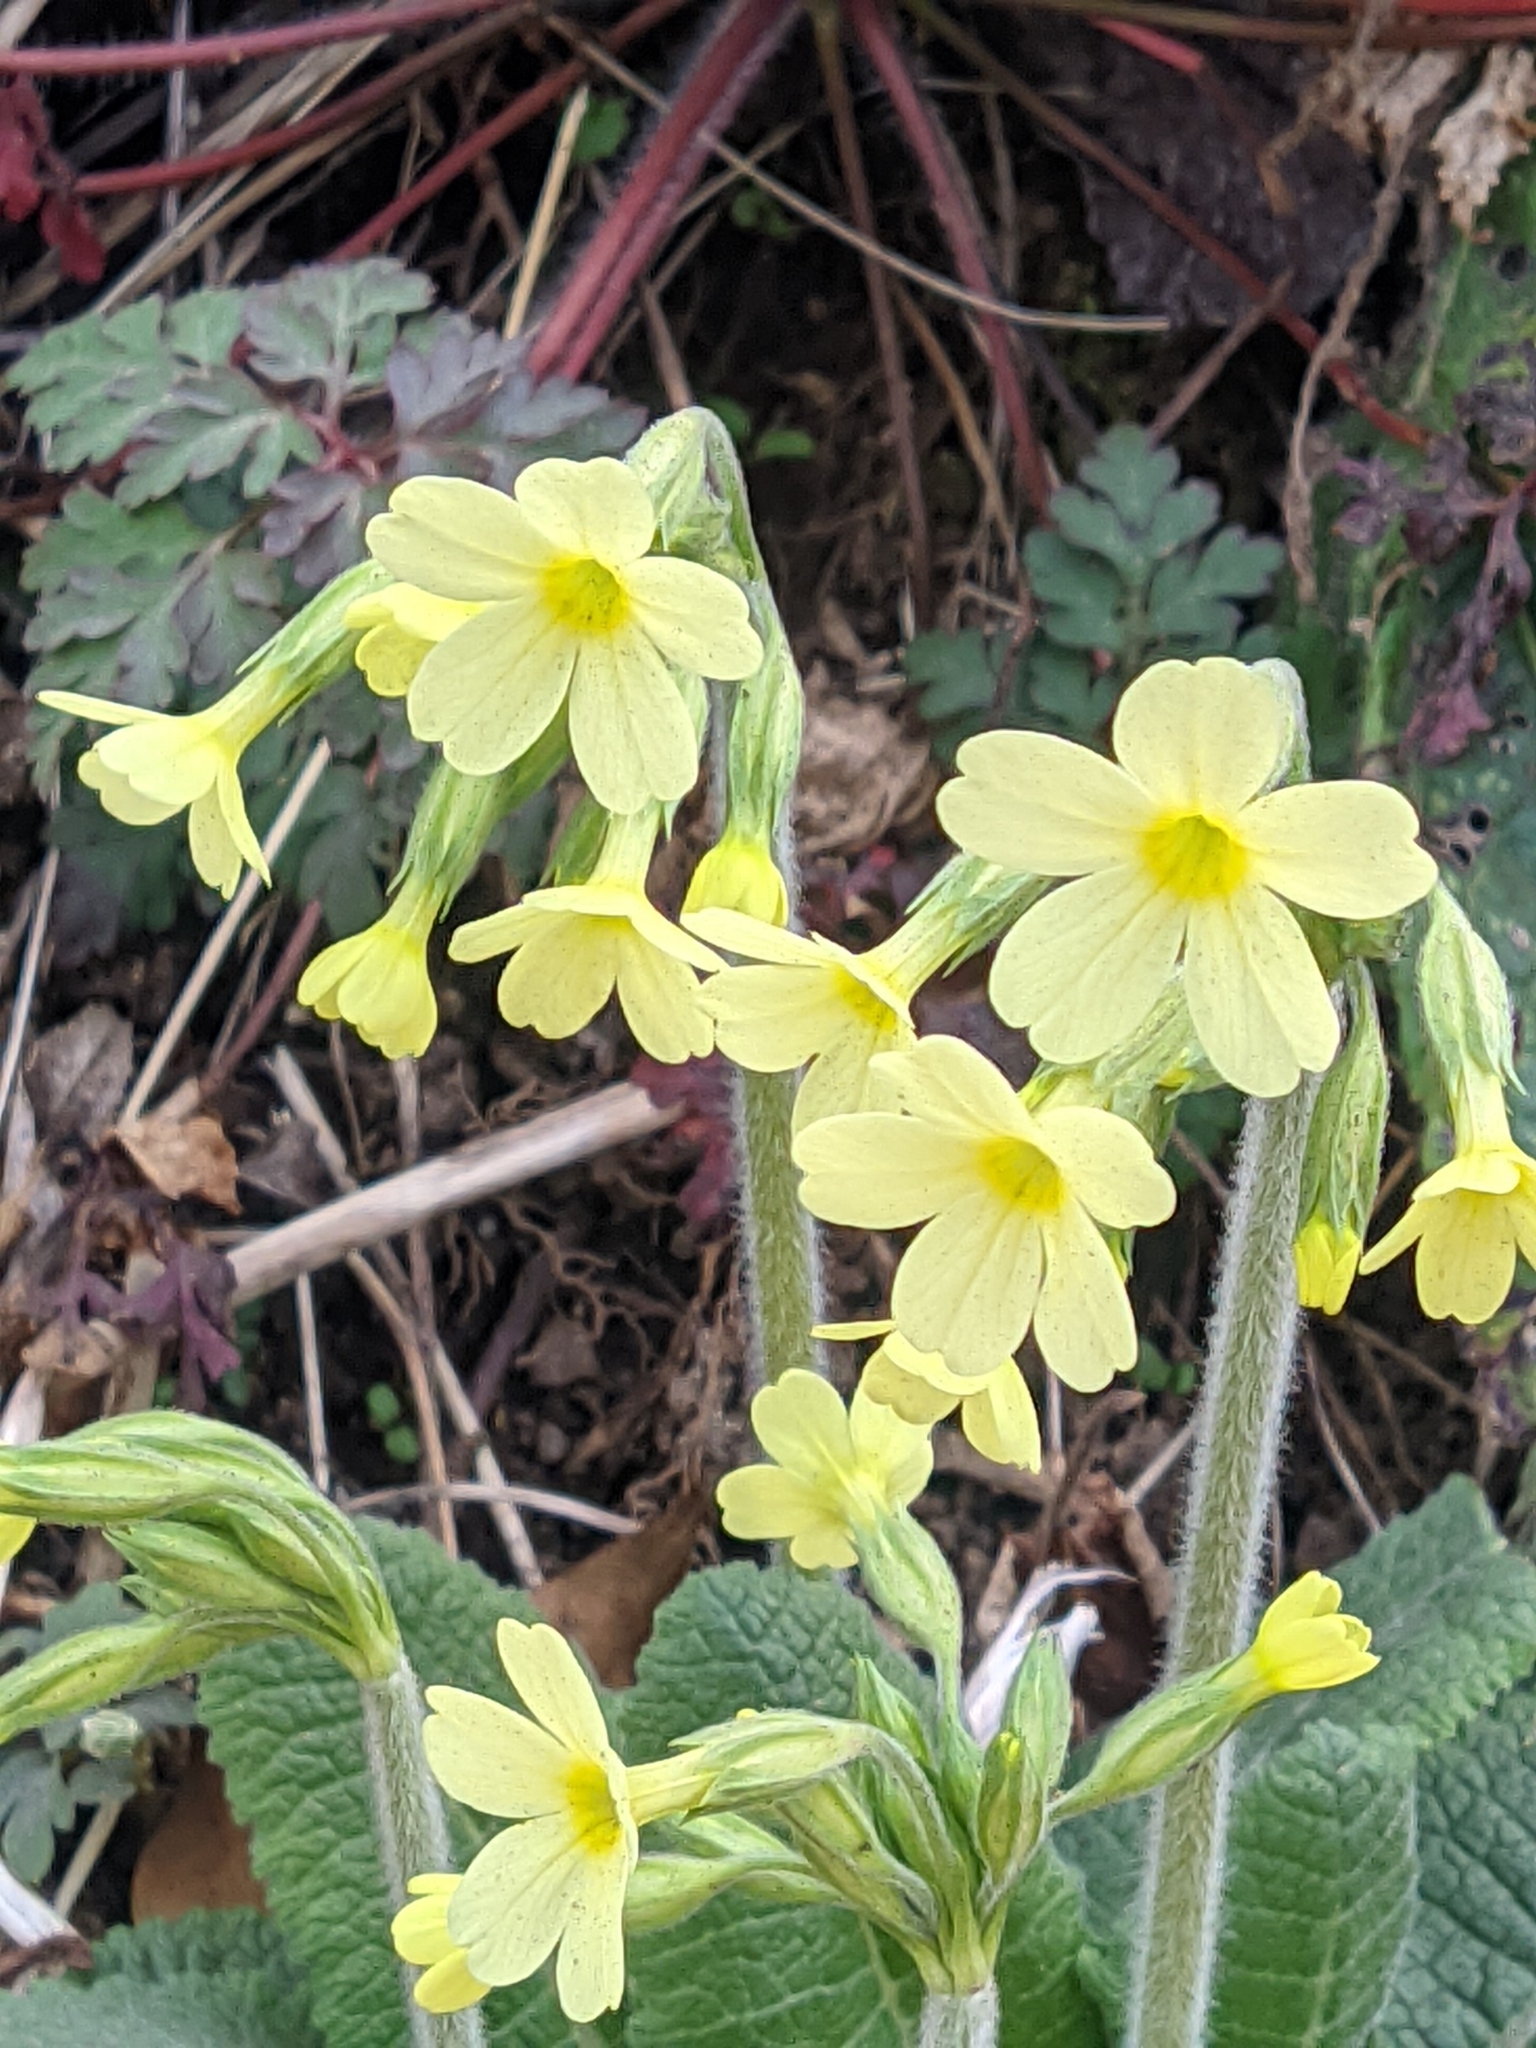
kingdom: Plantae
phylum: Tracheophyta
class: Magnoliopsida
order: Ericales
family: Primulaceae
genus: Primula
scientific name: Primula elatior
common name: Oxlip
